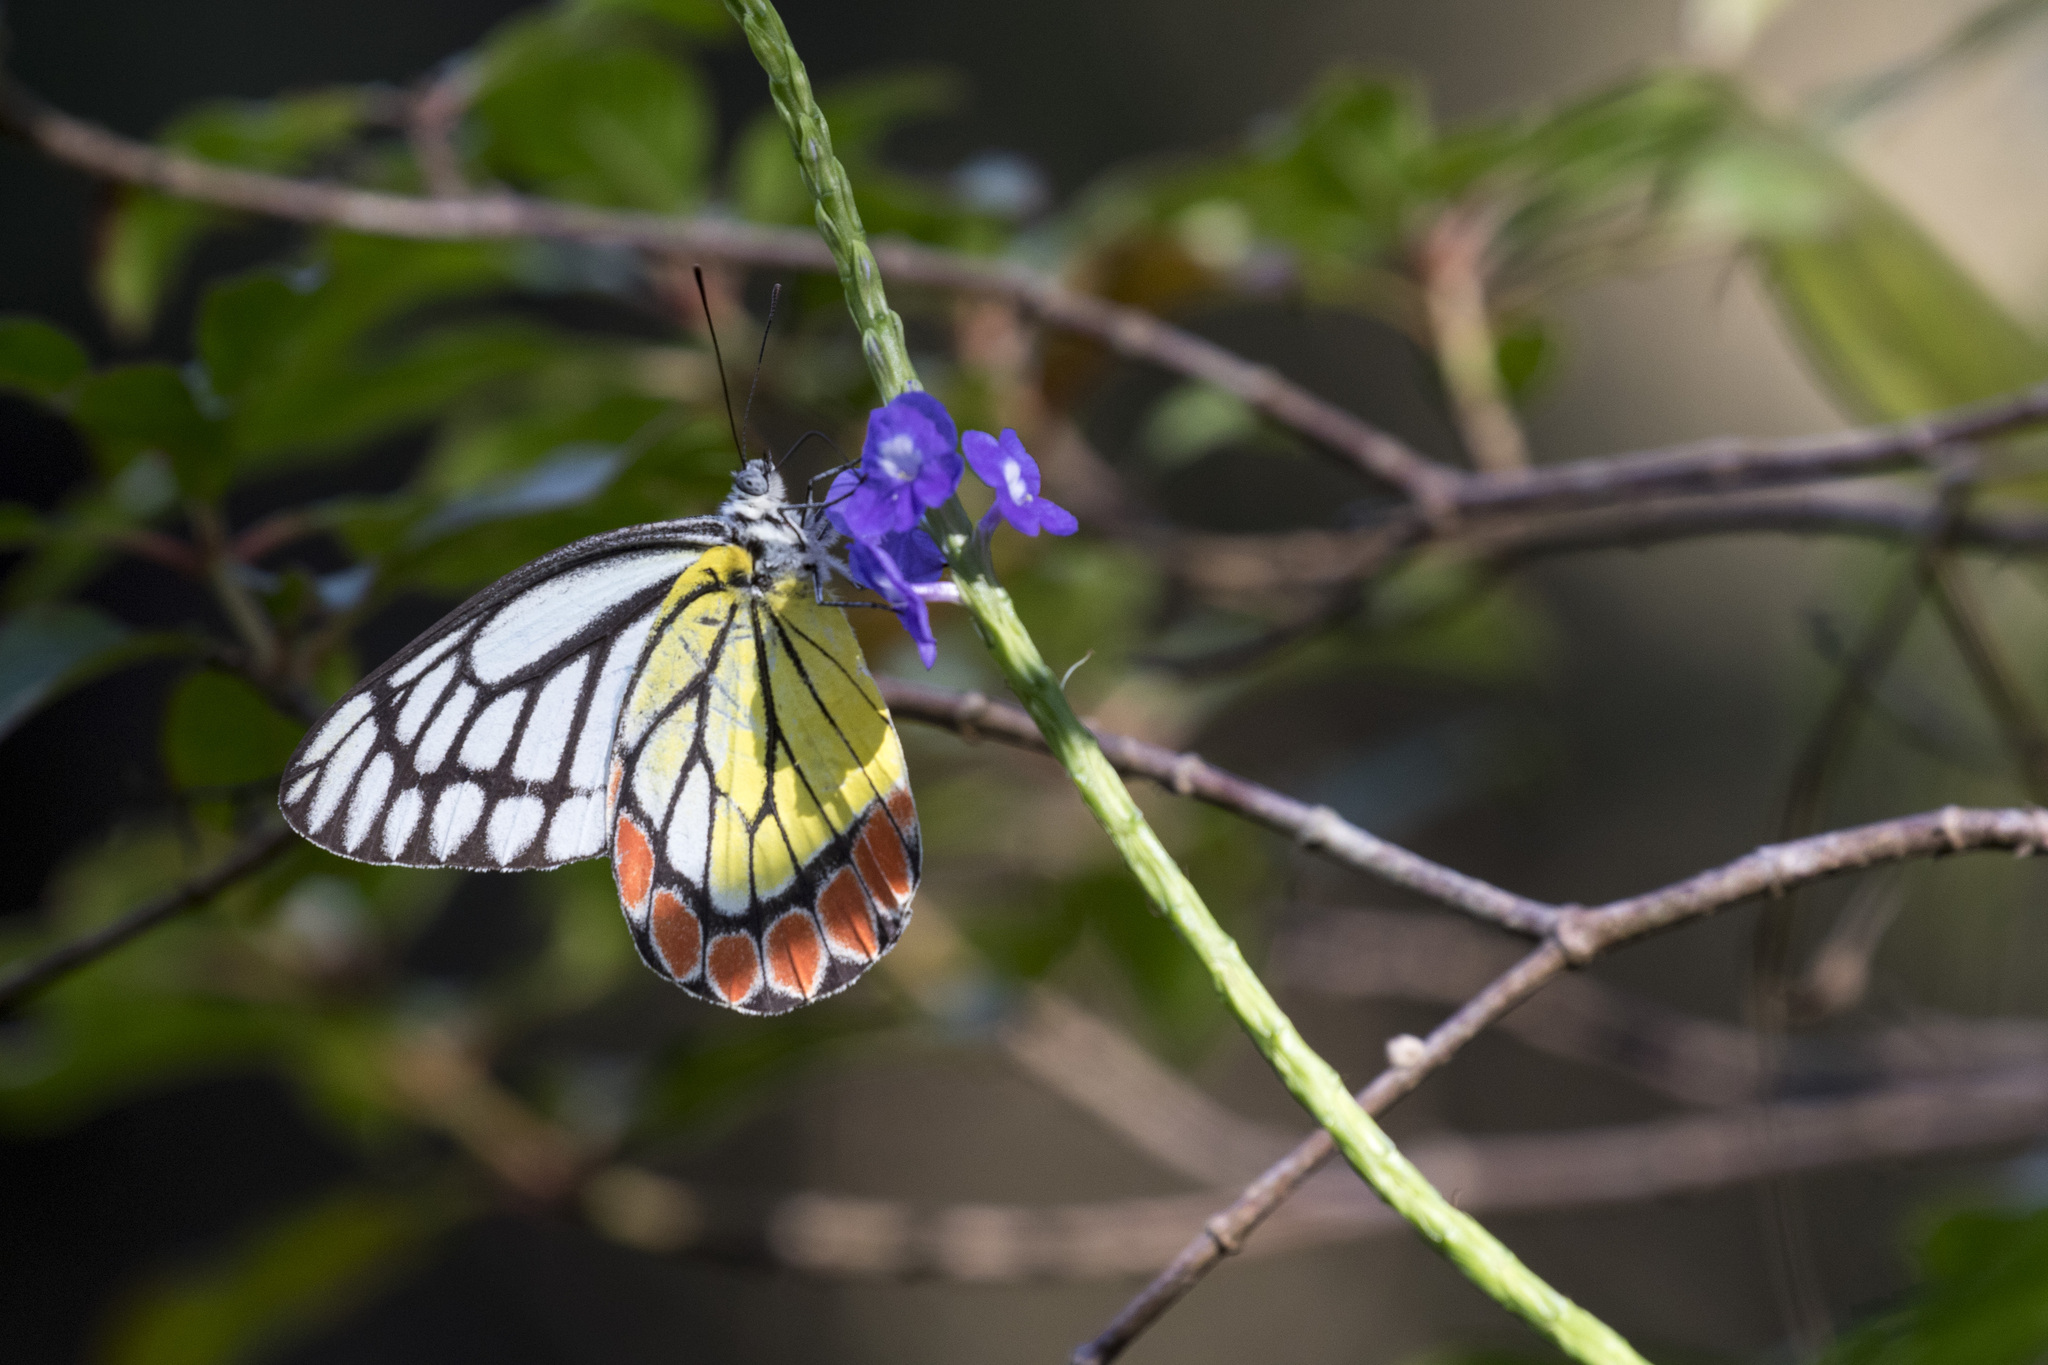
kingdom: Animalia
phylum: Arthropoda
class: Insecta
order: Lepidoptera
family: Pieridae
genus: Delias
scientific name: Delias eucharis
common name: Common jezebel
